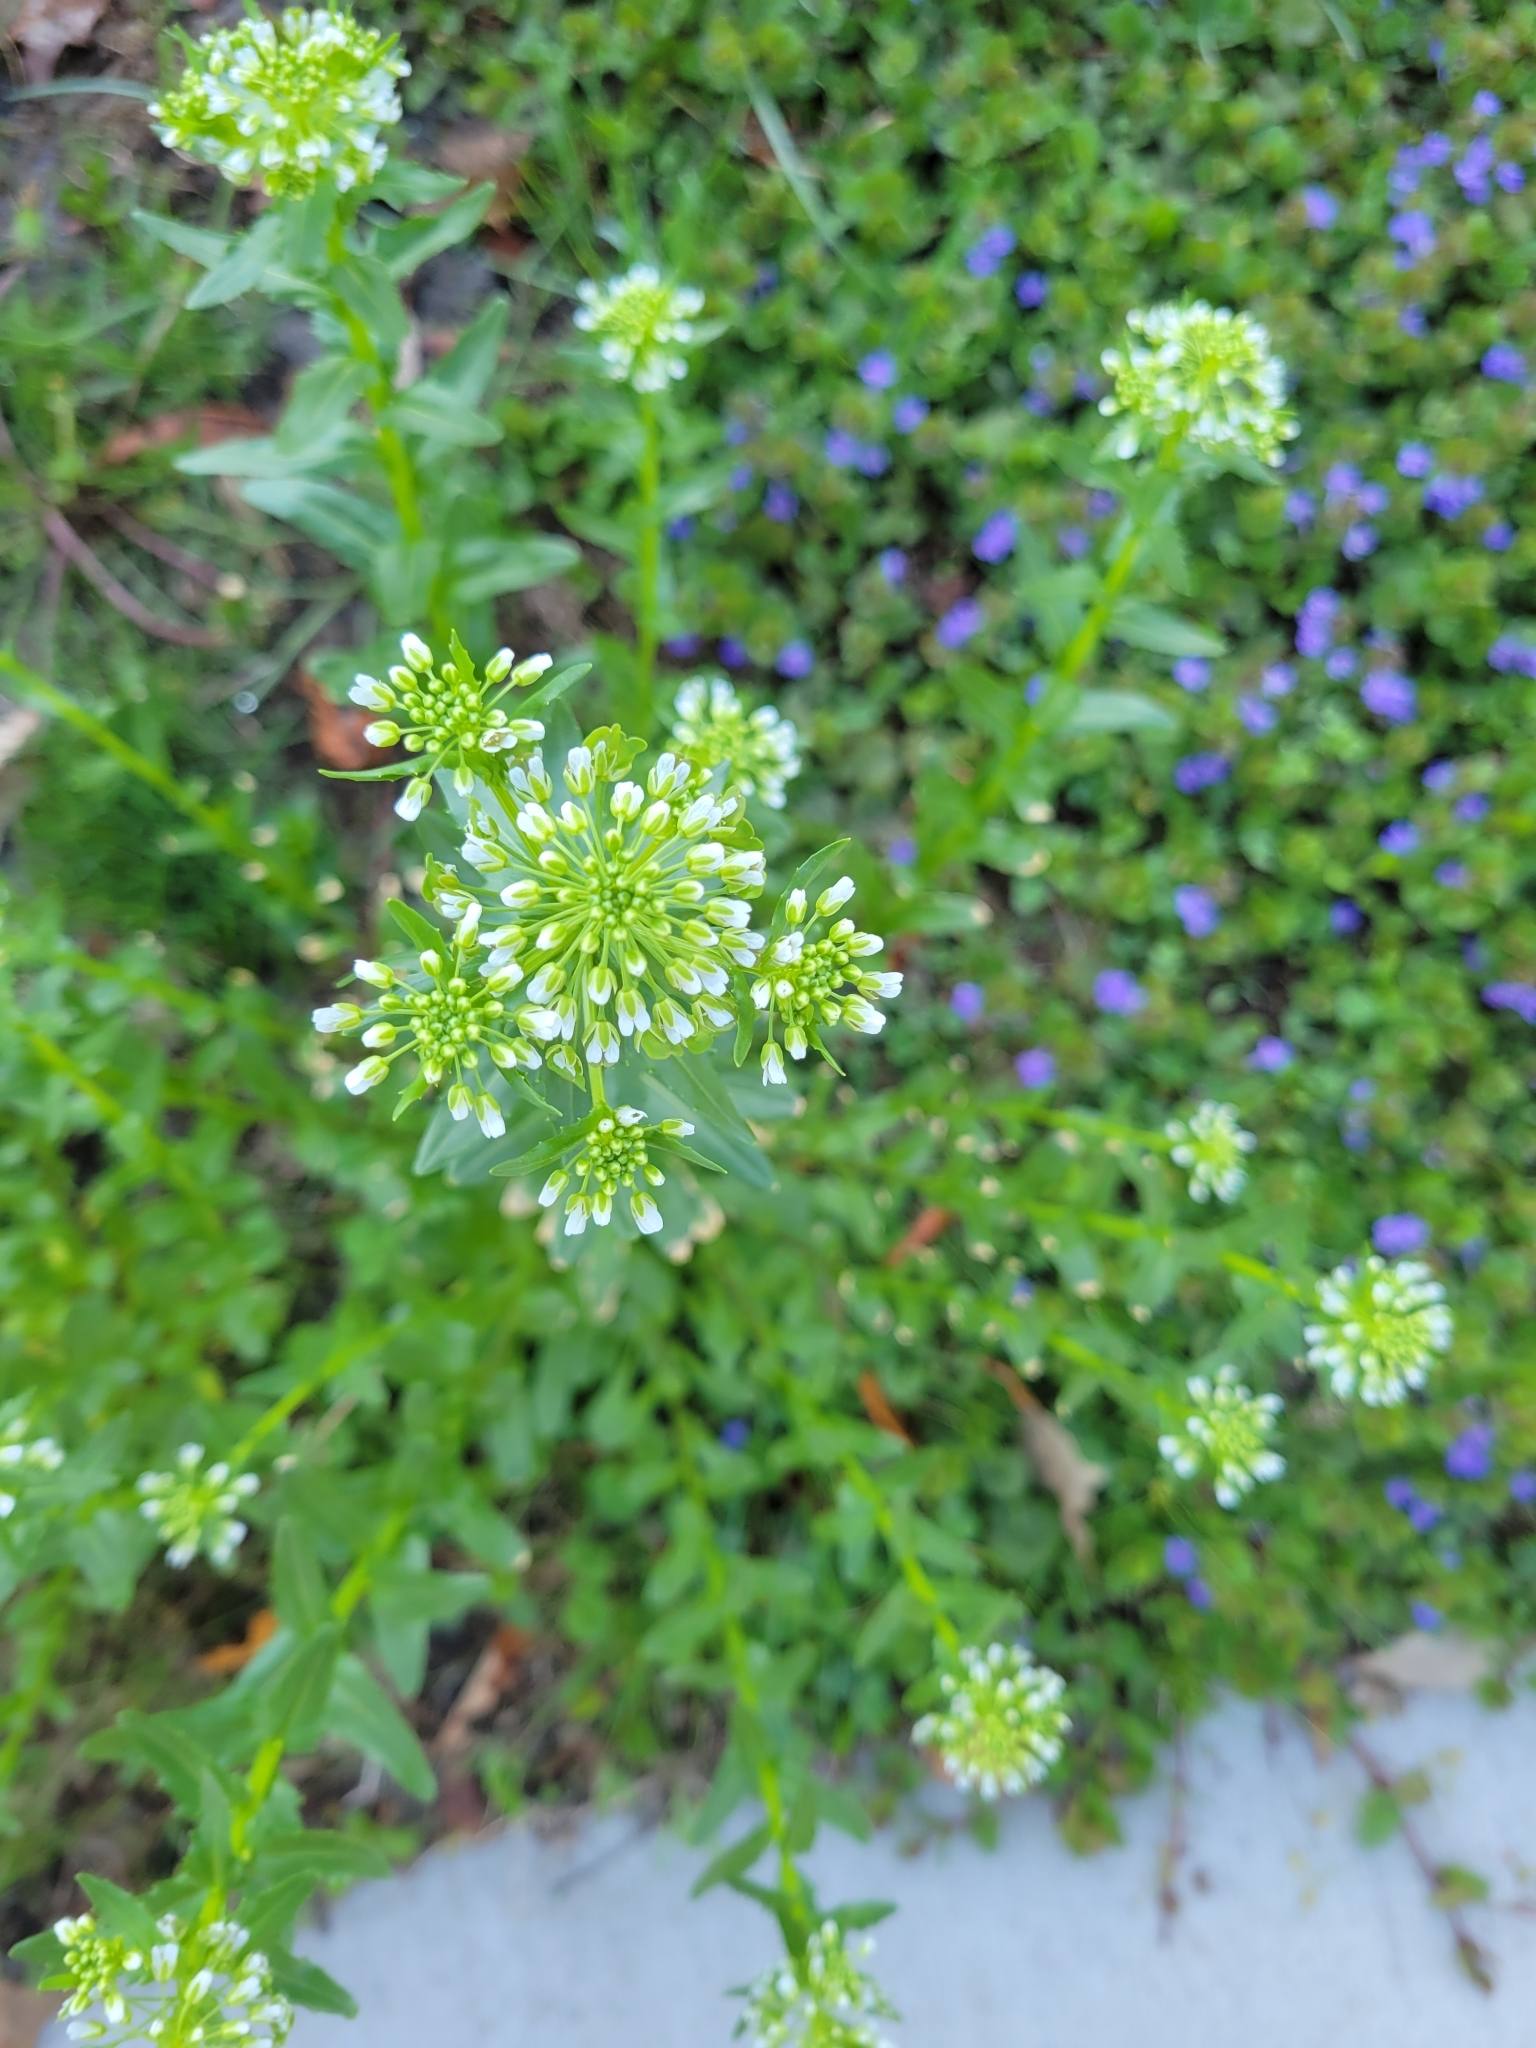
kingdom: Plantae
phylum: Tracheophyta
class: Magnoliopsida
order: Brassicales
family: Brassicaceae
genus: Thlaspi
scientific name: Thlaspi arvense
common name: Field pennycress
